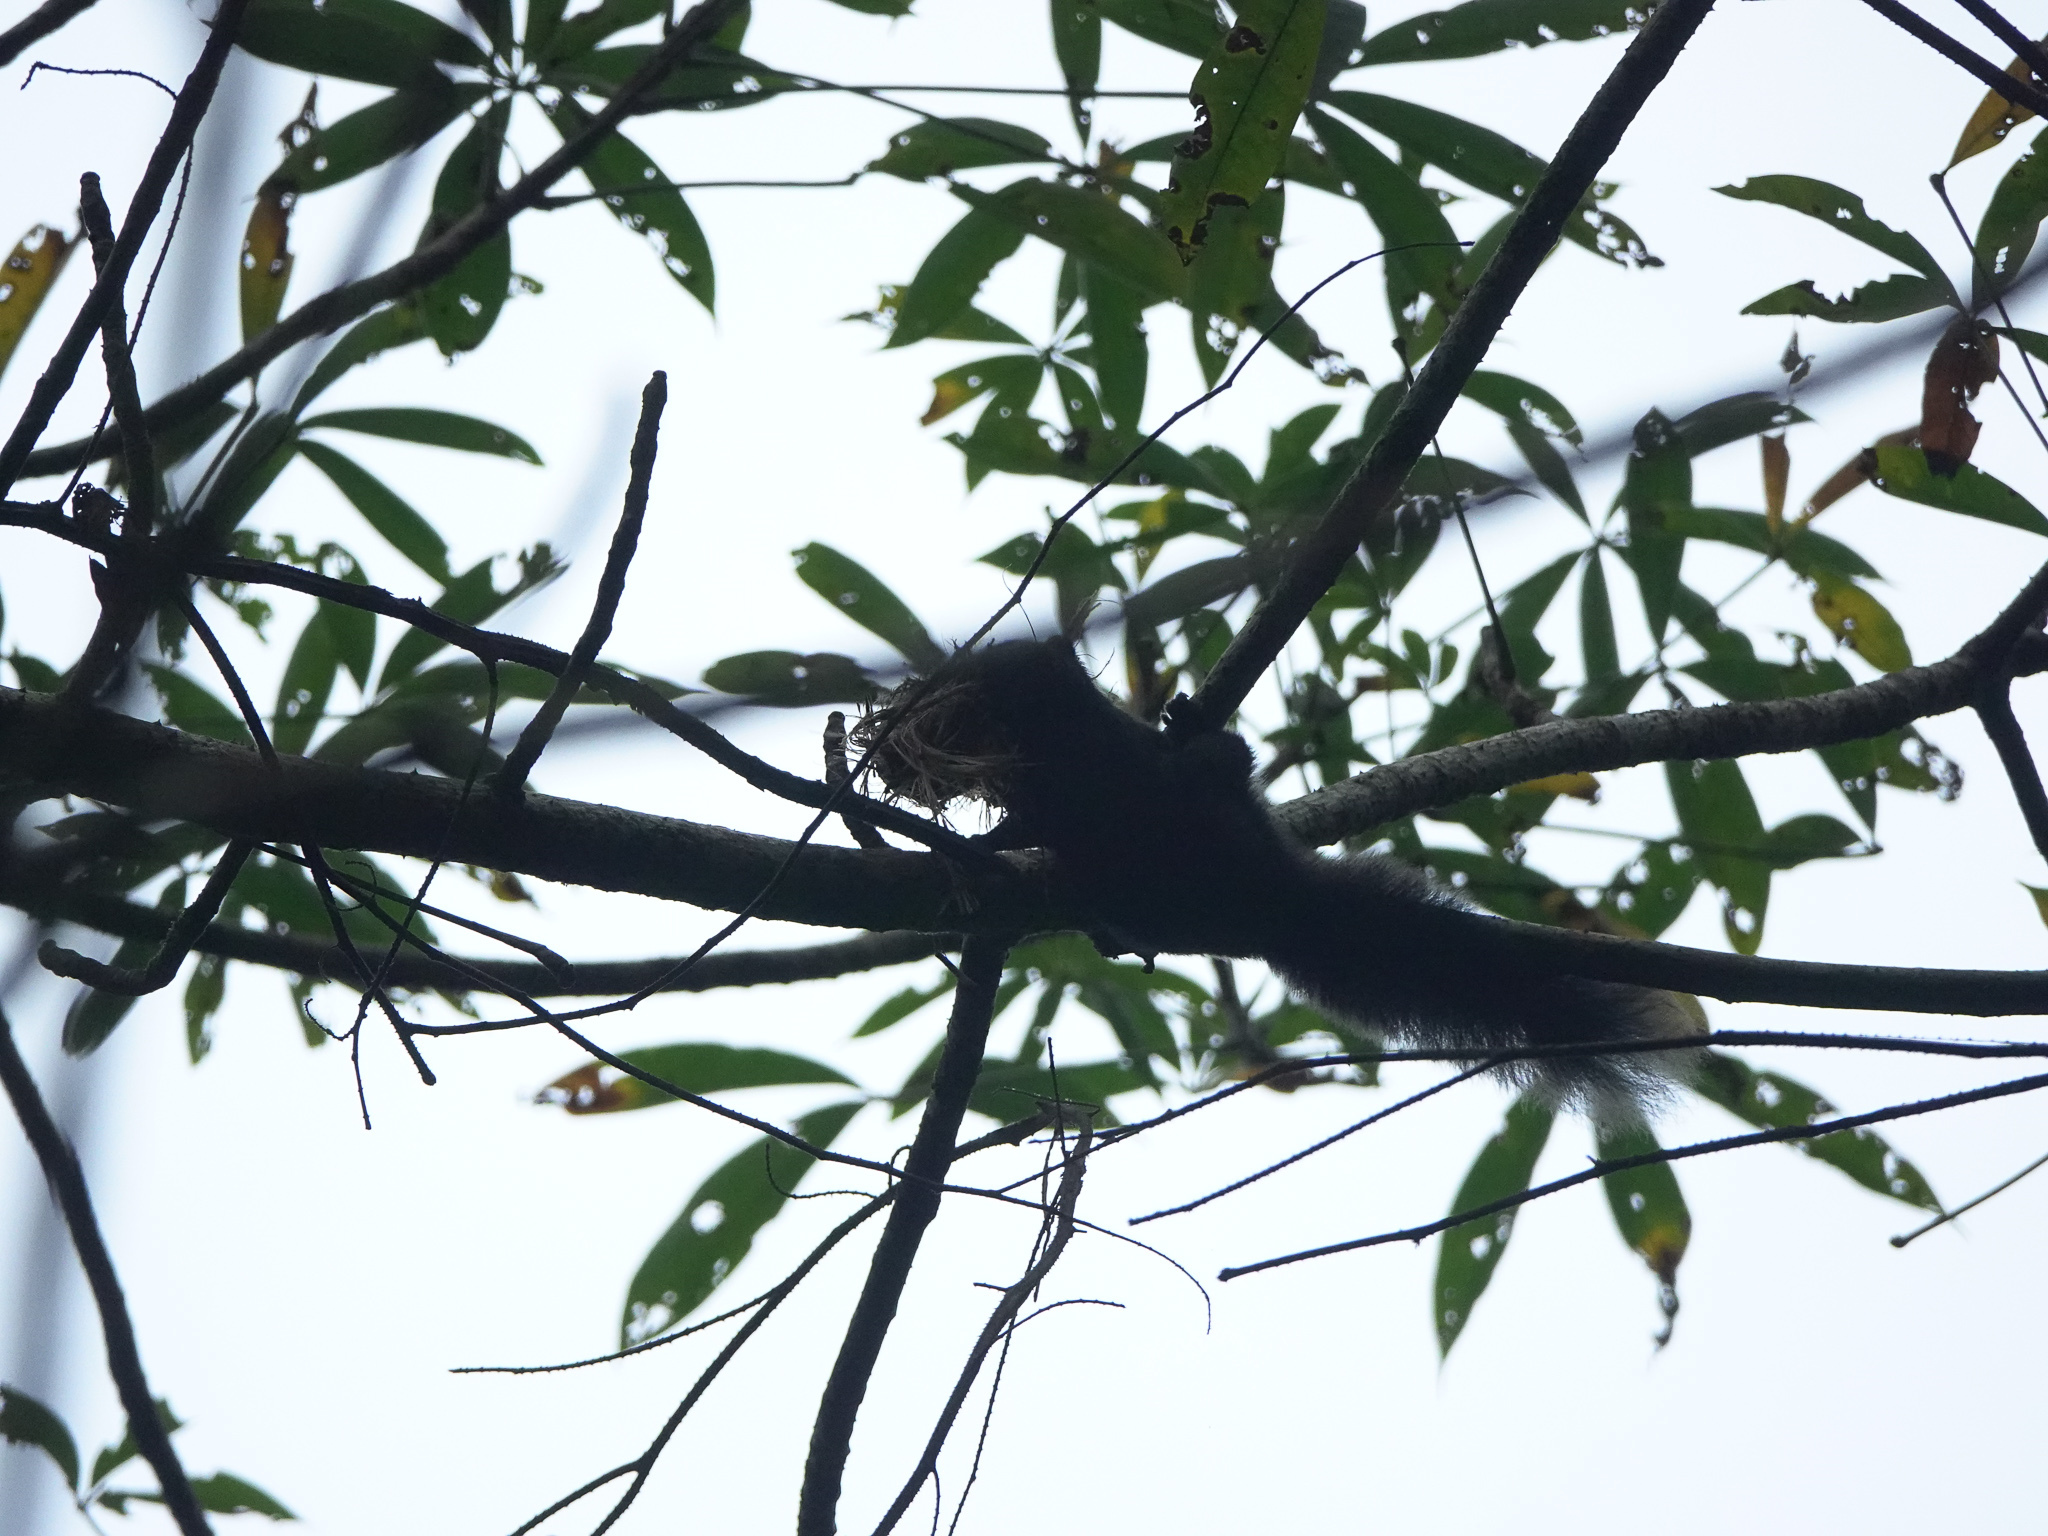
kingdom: Animalia
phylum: Chordata
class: Mammalia
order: Rodentia
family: Sciuridae
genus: Callosciurus
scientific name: Callosciurus erythraeus
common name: Pallas's squirrel
